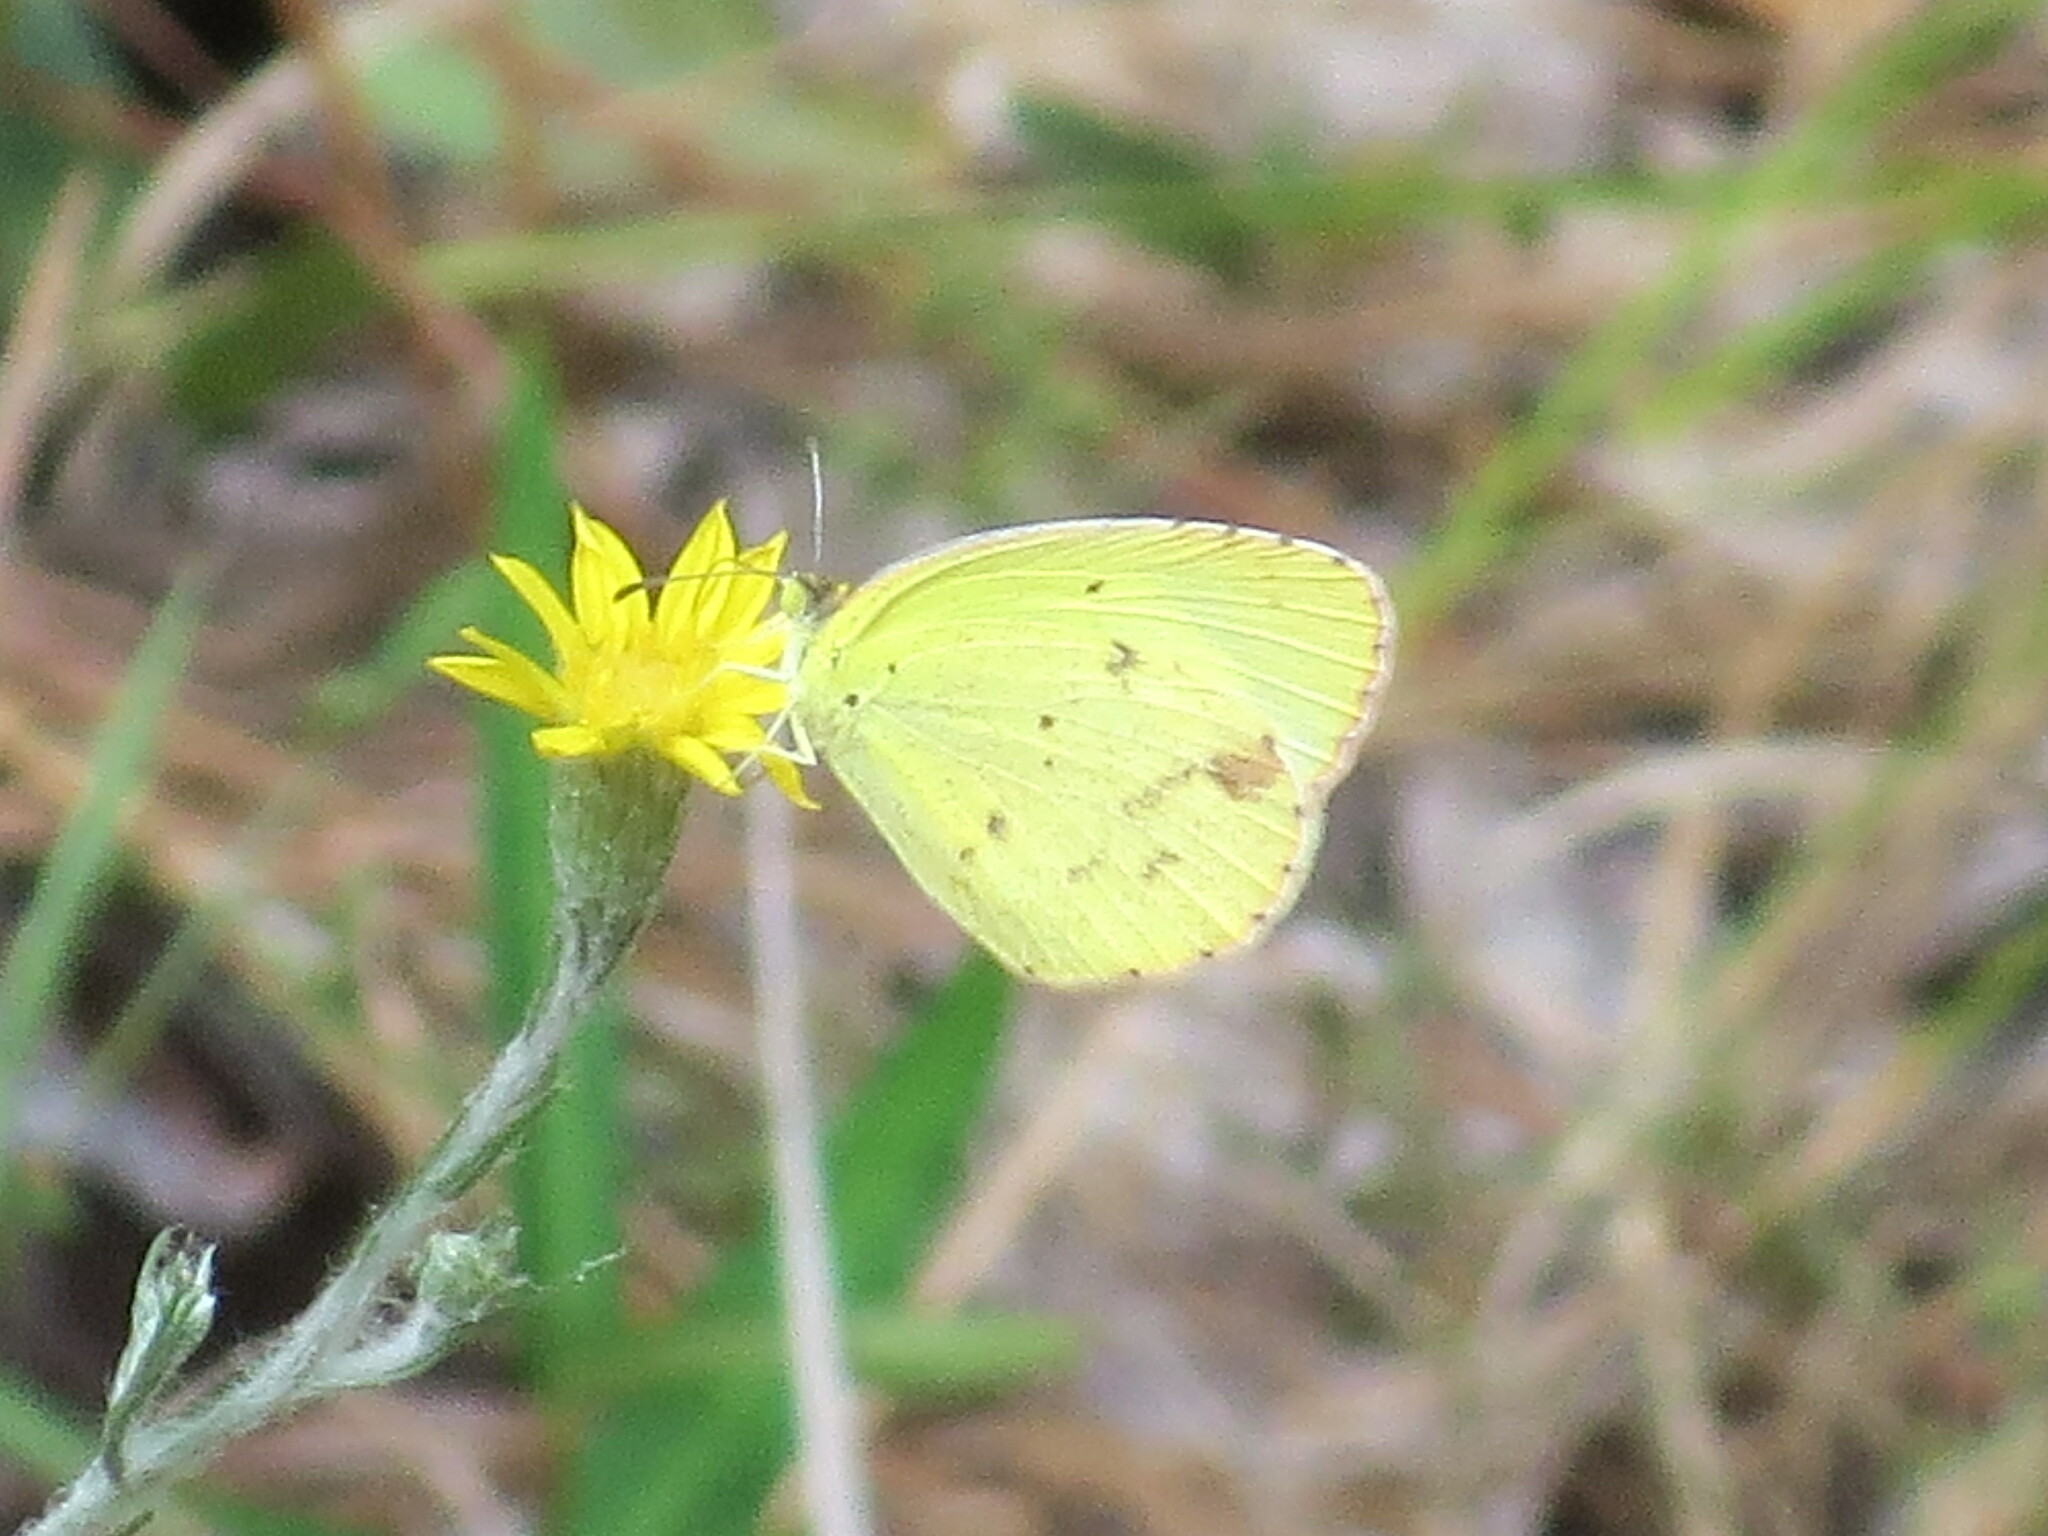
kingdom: Animalia
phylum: Arthropoda
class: Insecta
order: Lepidoptera
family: Pieridae
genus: Pyrisitia
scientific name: Pyrisitia lisa
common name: Little yellow
